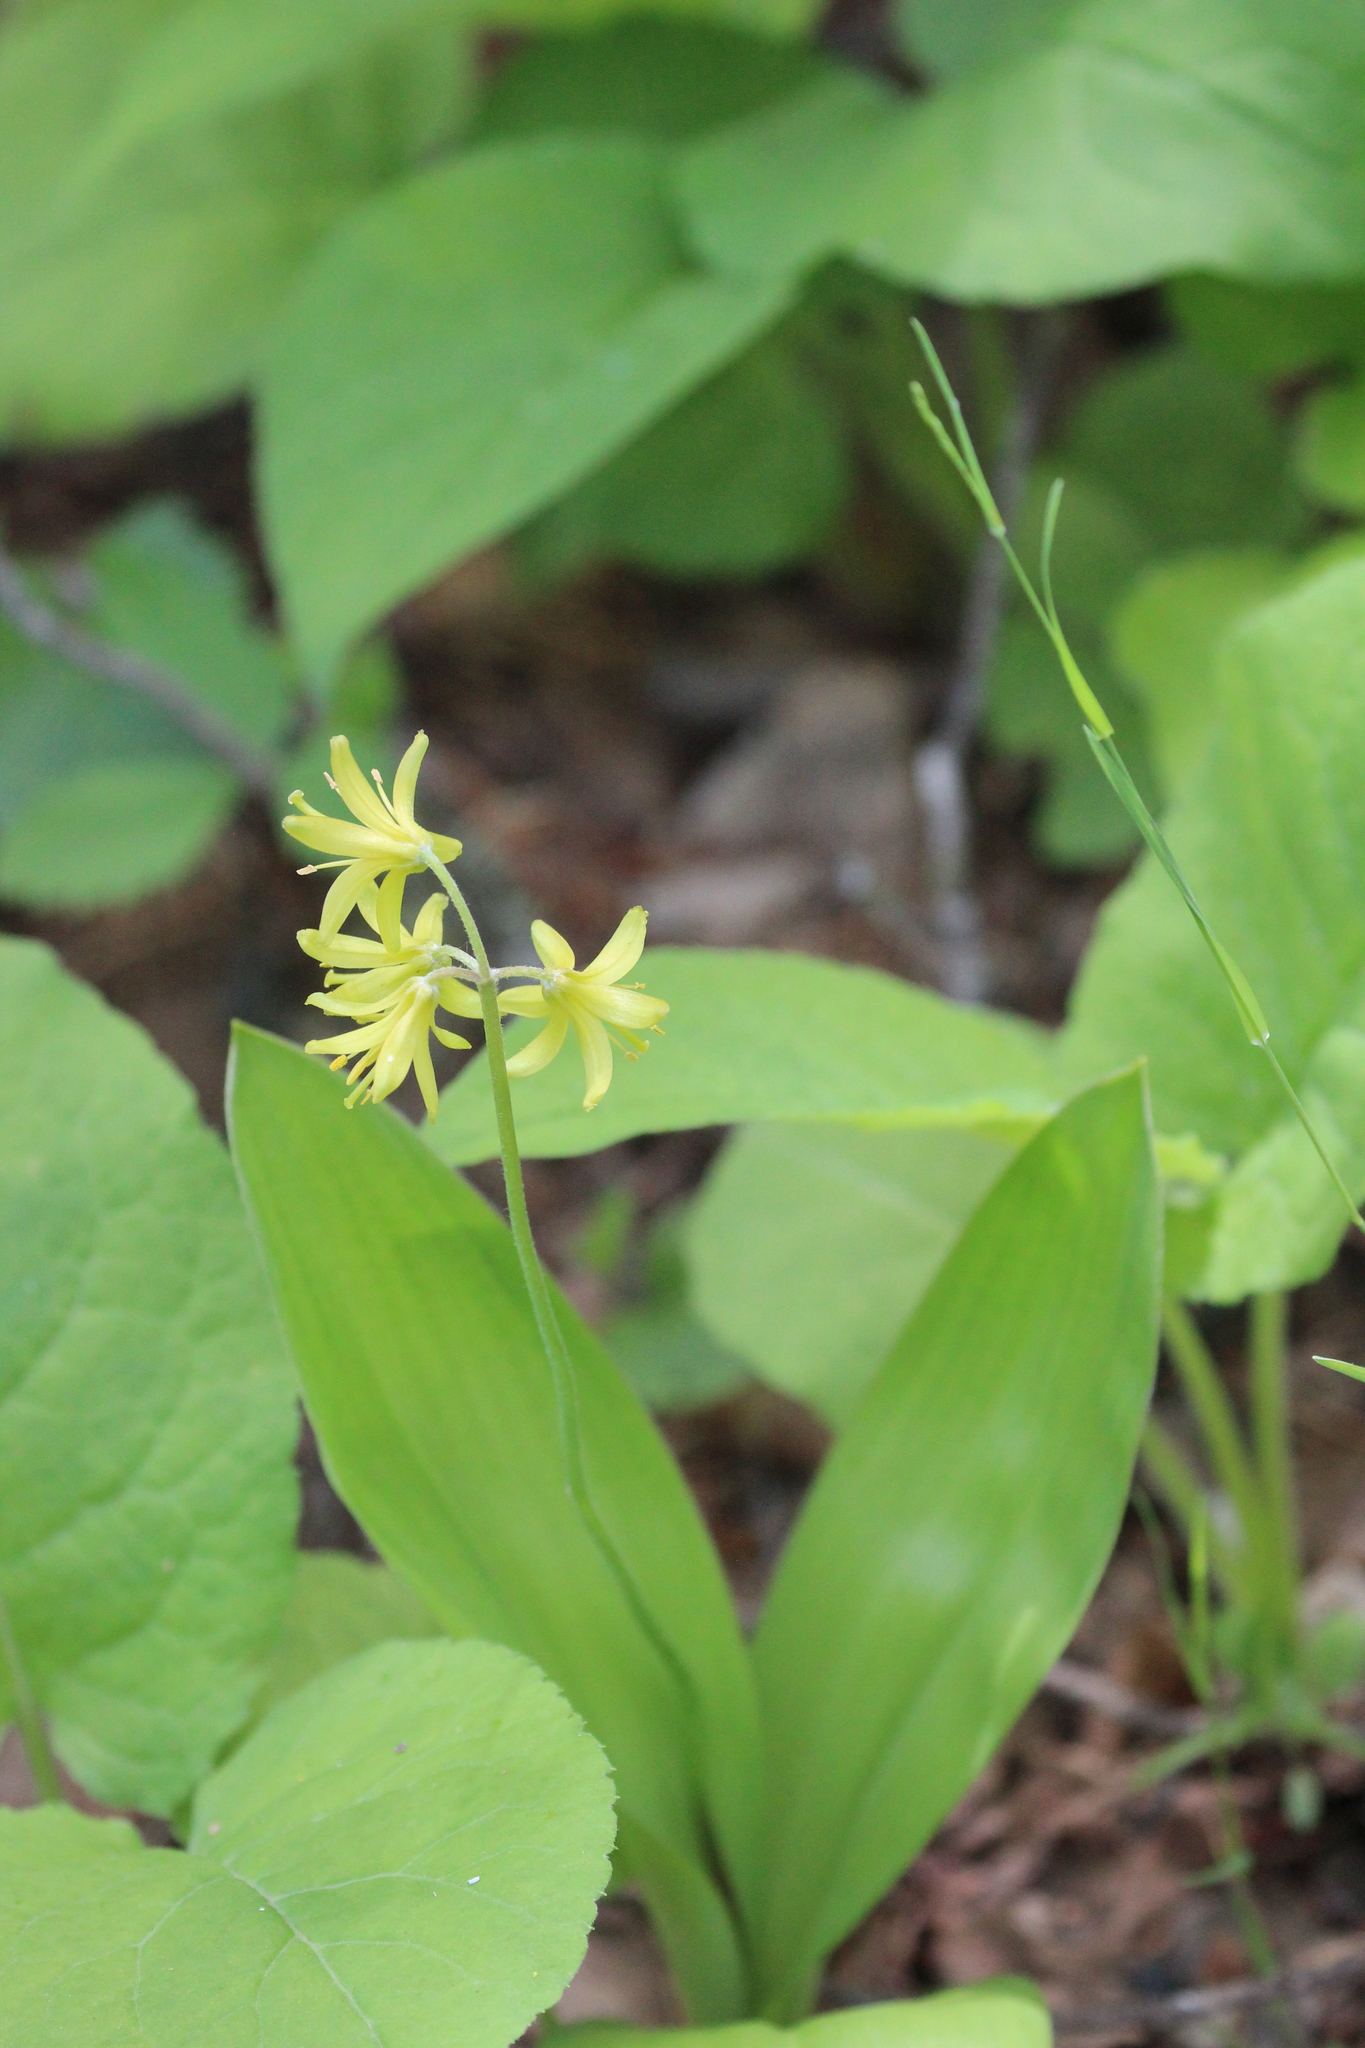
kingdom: Plantae
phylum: Tracheophyta
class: Liliopsida
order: Liliales
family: Liliaceae
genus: Clintonia
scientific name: Clintonia borealis
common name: Yellow clintonia
